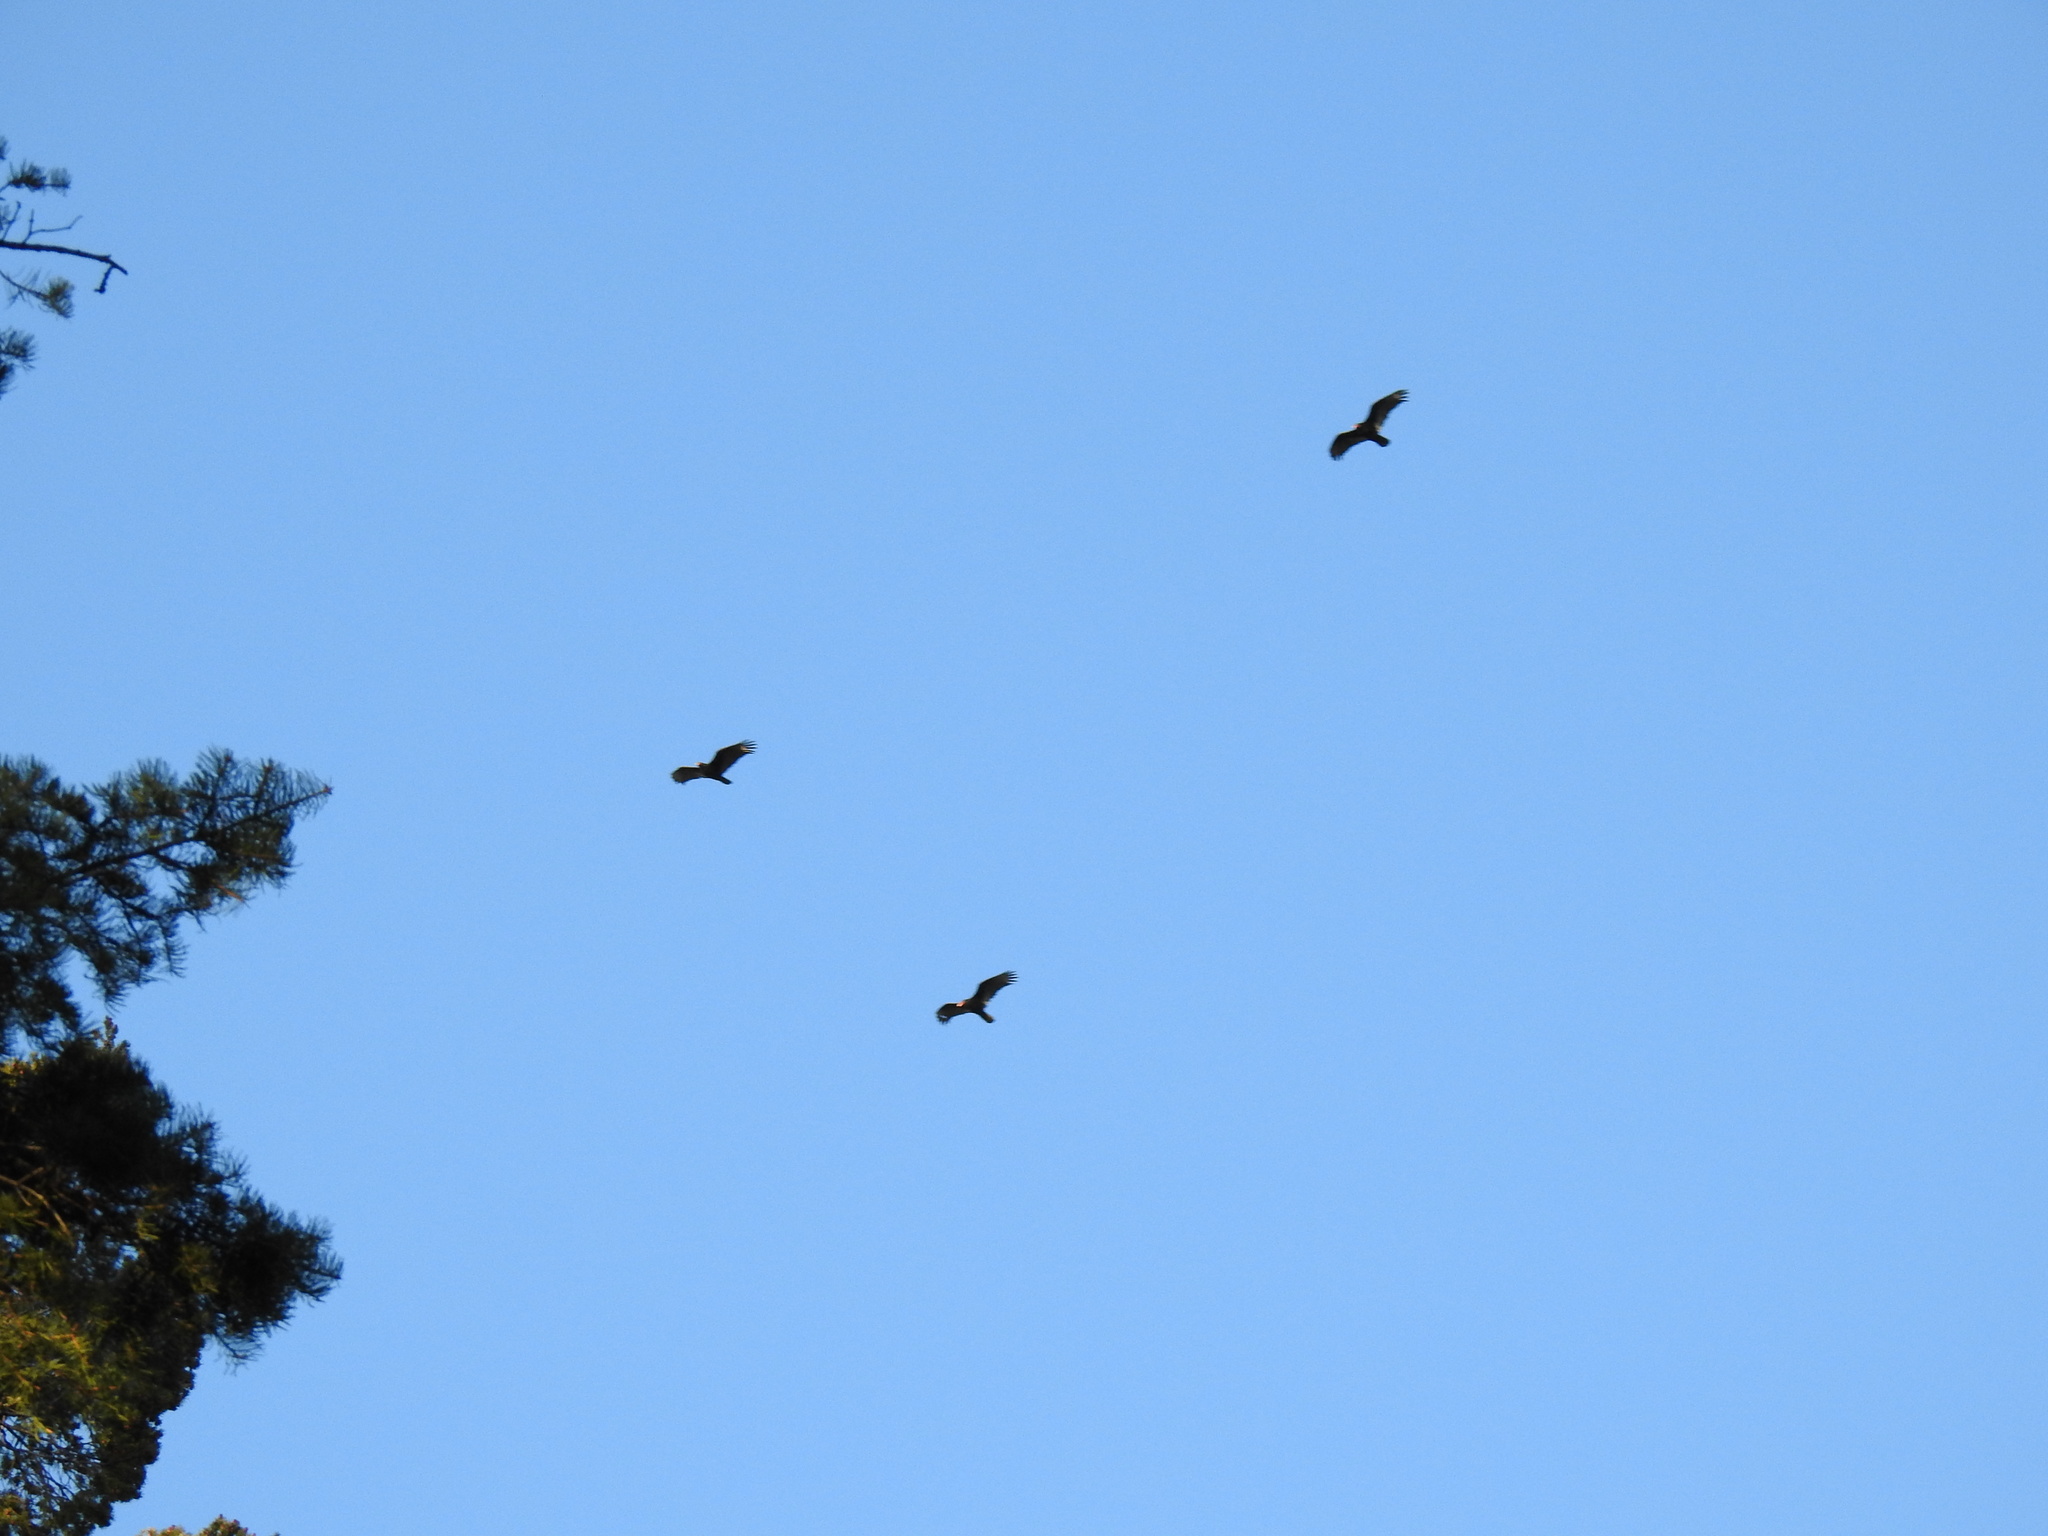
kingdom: Animalia
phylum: Chordata
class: Aves
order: Accipitriformes
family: Cathartidae
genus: Cathartes
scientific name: Cathartes aura
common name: Turkey vulture
